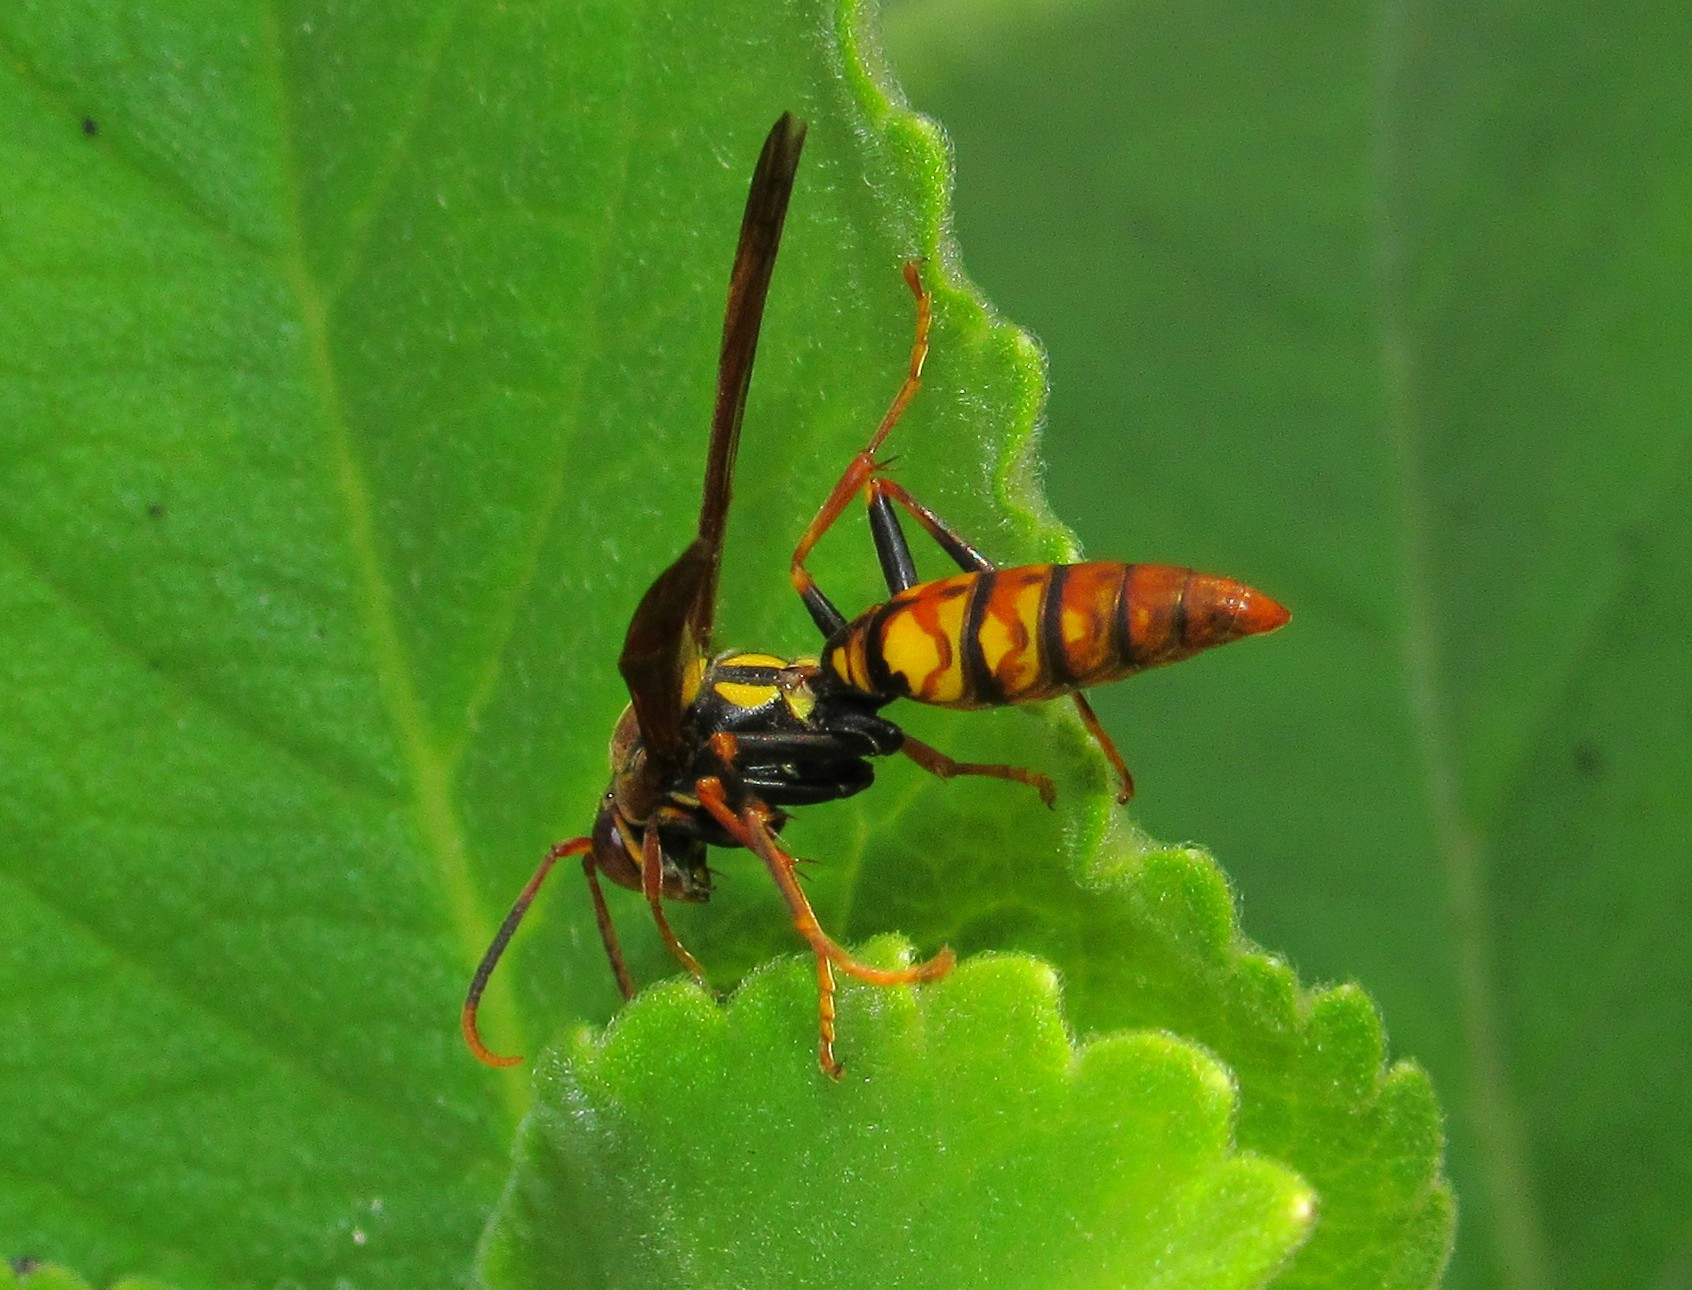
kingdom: Animalia
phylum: Arthropoda
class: Insecta
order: Hymenoptera
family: Eumenidae
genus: Polistes
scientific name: Polistes versicolor
